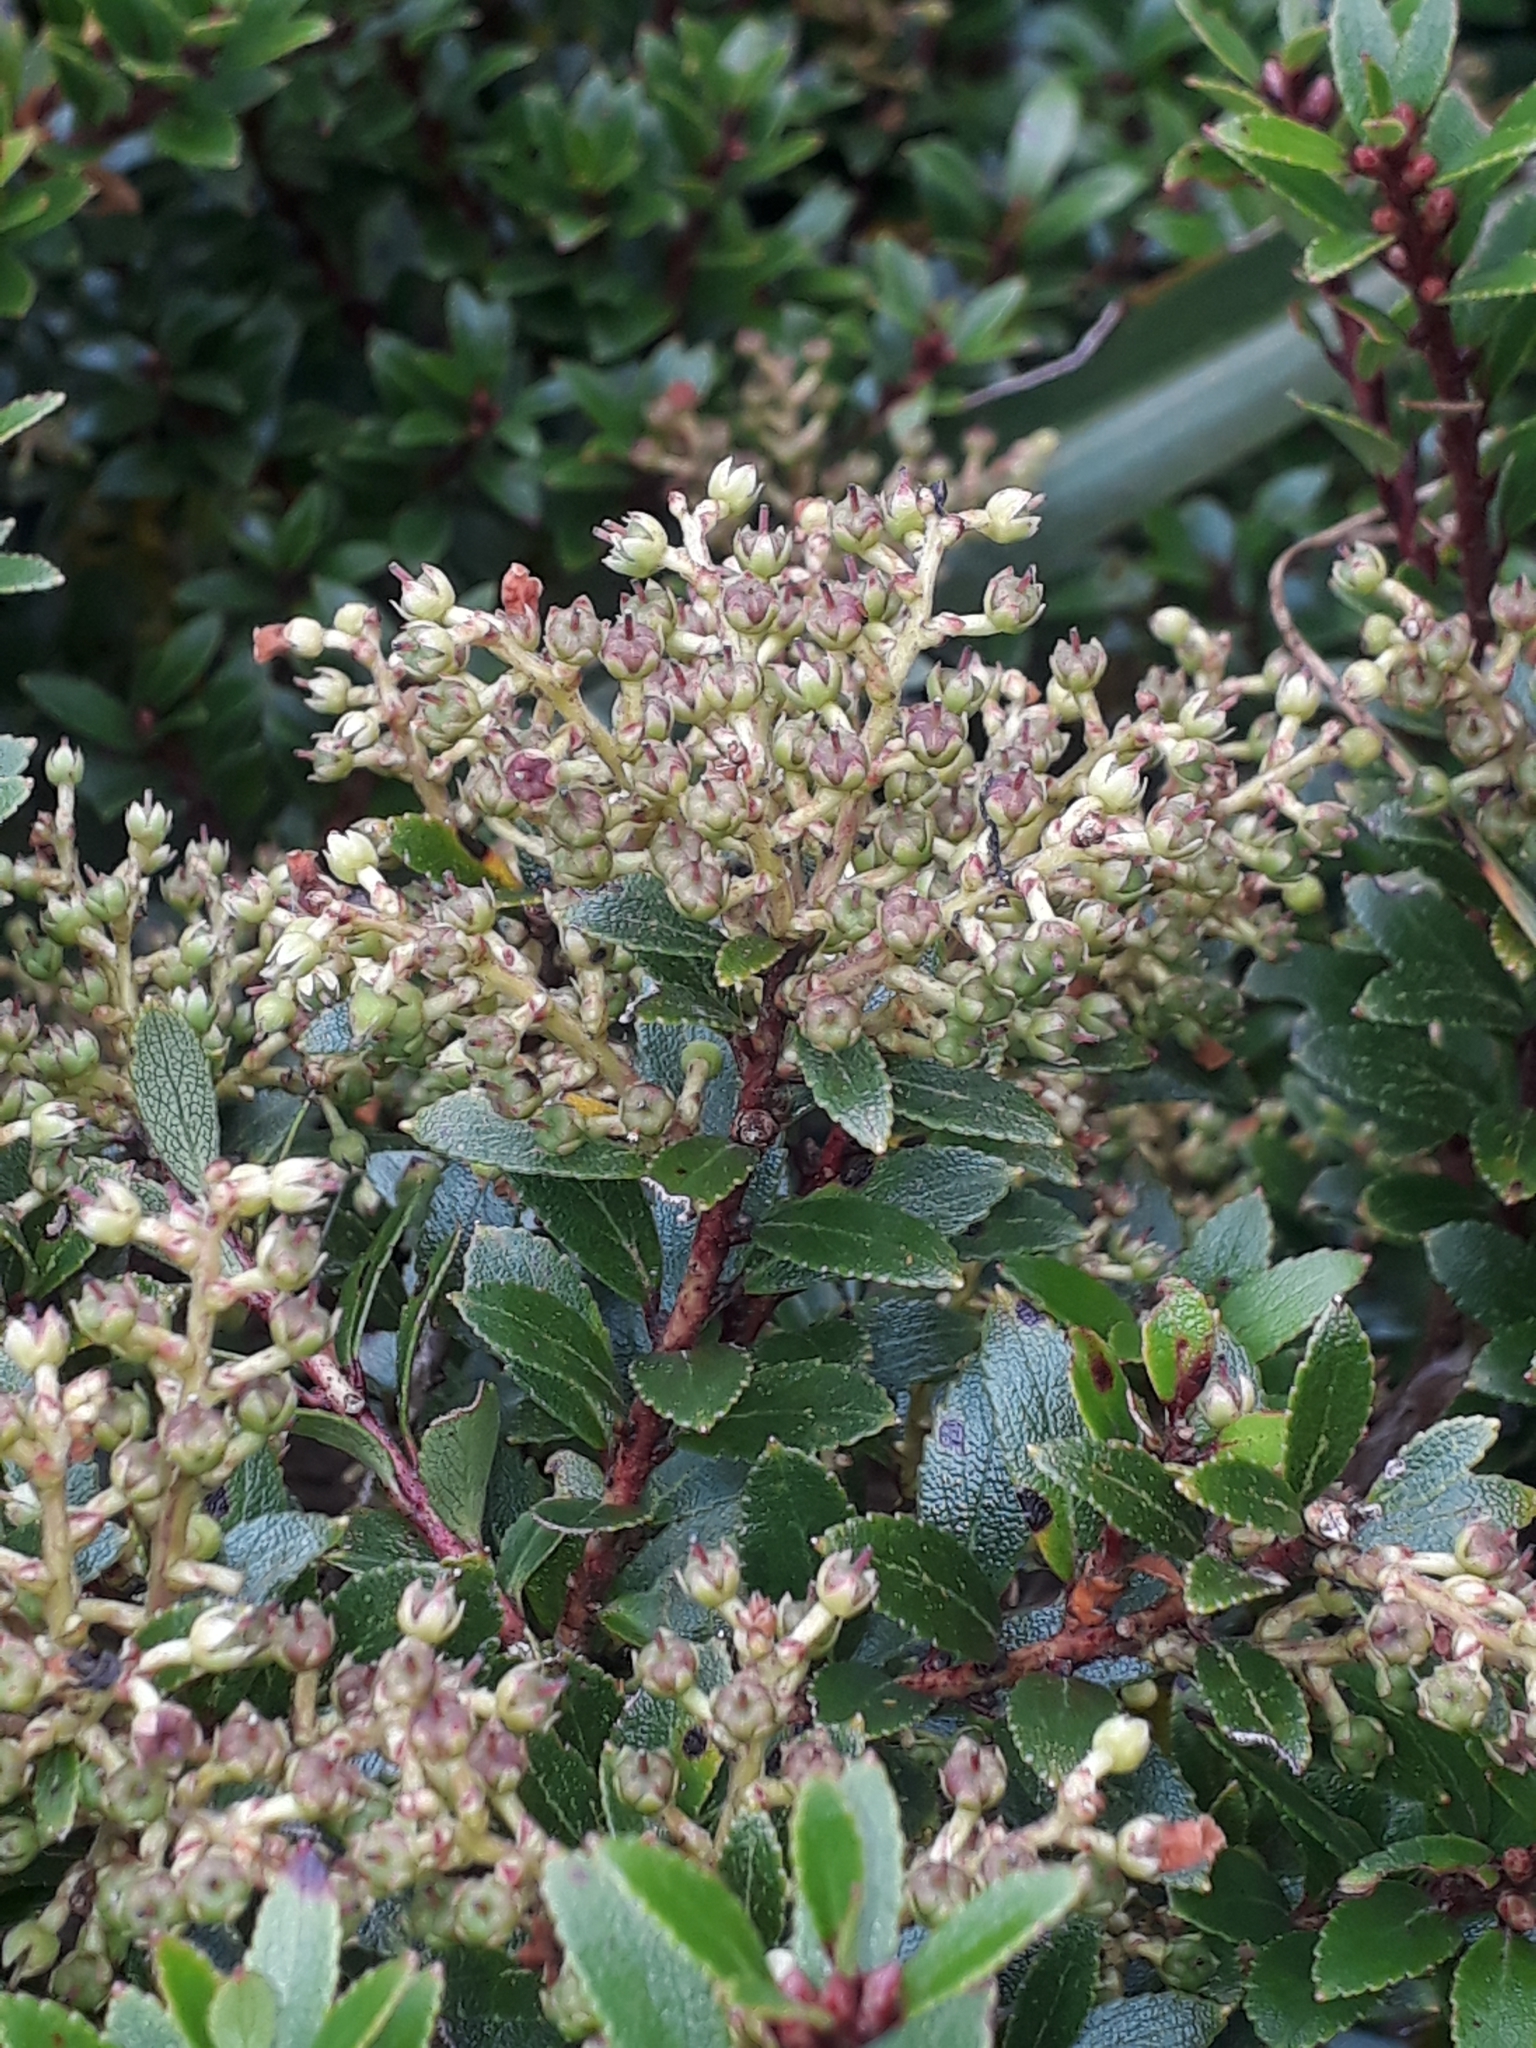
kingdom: Plantae
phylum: Tracheophyta
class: Magnoliopsida
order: Ericales
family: Ericaceae
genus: Gaultheria
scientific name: Gaultheria rupestris
